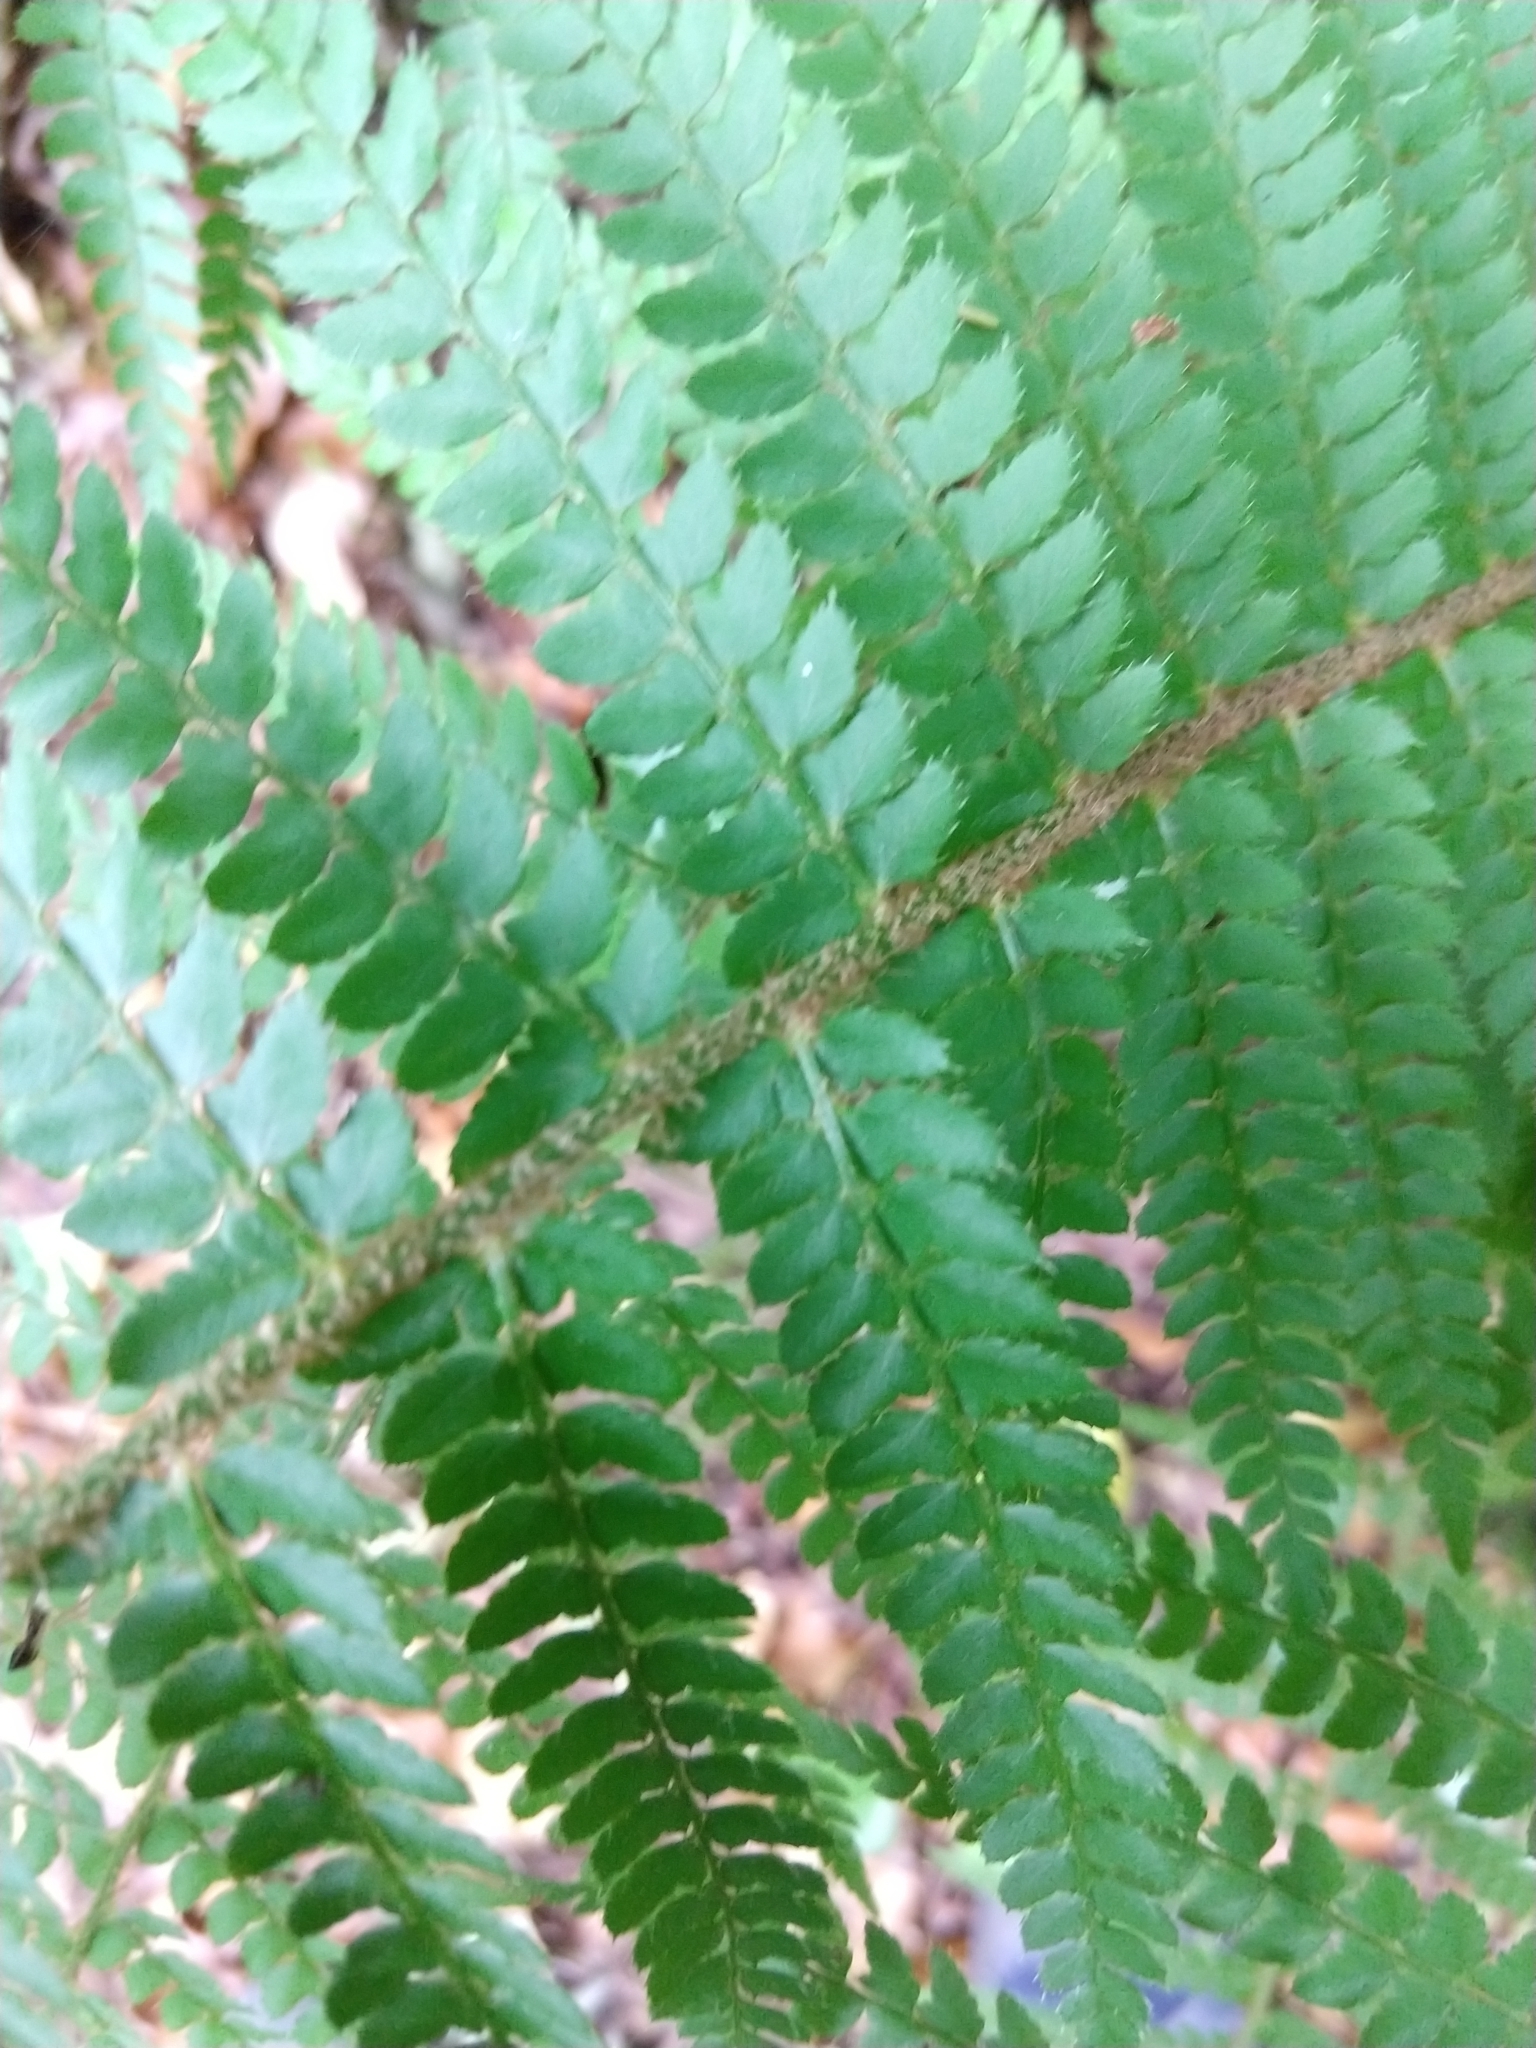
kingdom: Plantae
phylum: Tracheophyta
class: Polypodiopsida
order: Polypodiales
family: Dryopteridaceae
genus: Polystichum
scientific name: Polystichum setiferum
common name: Soft shield-fern
